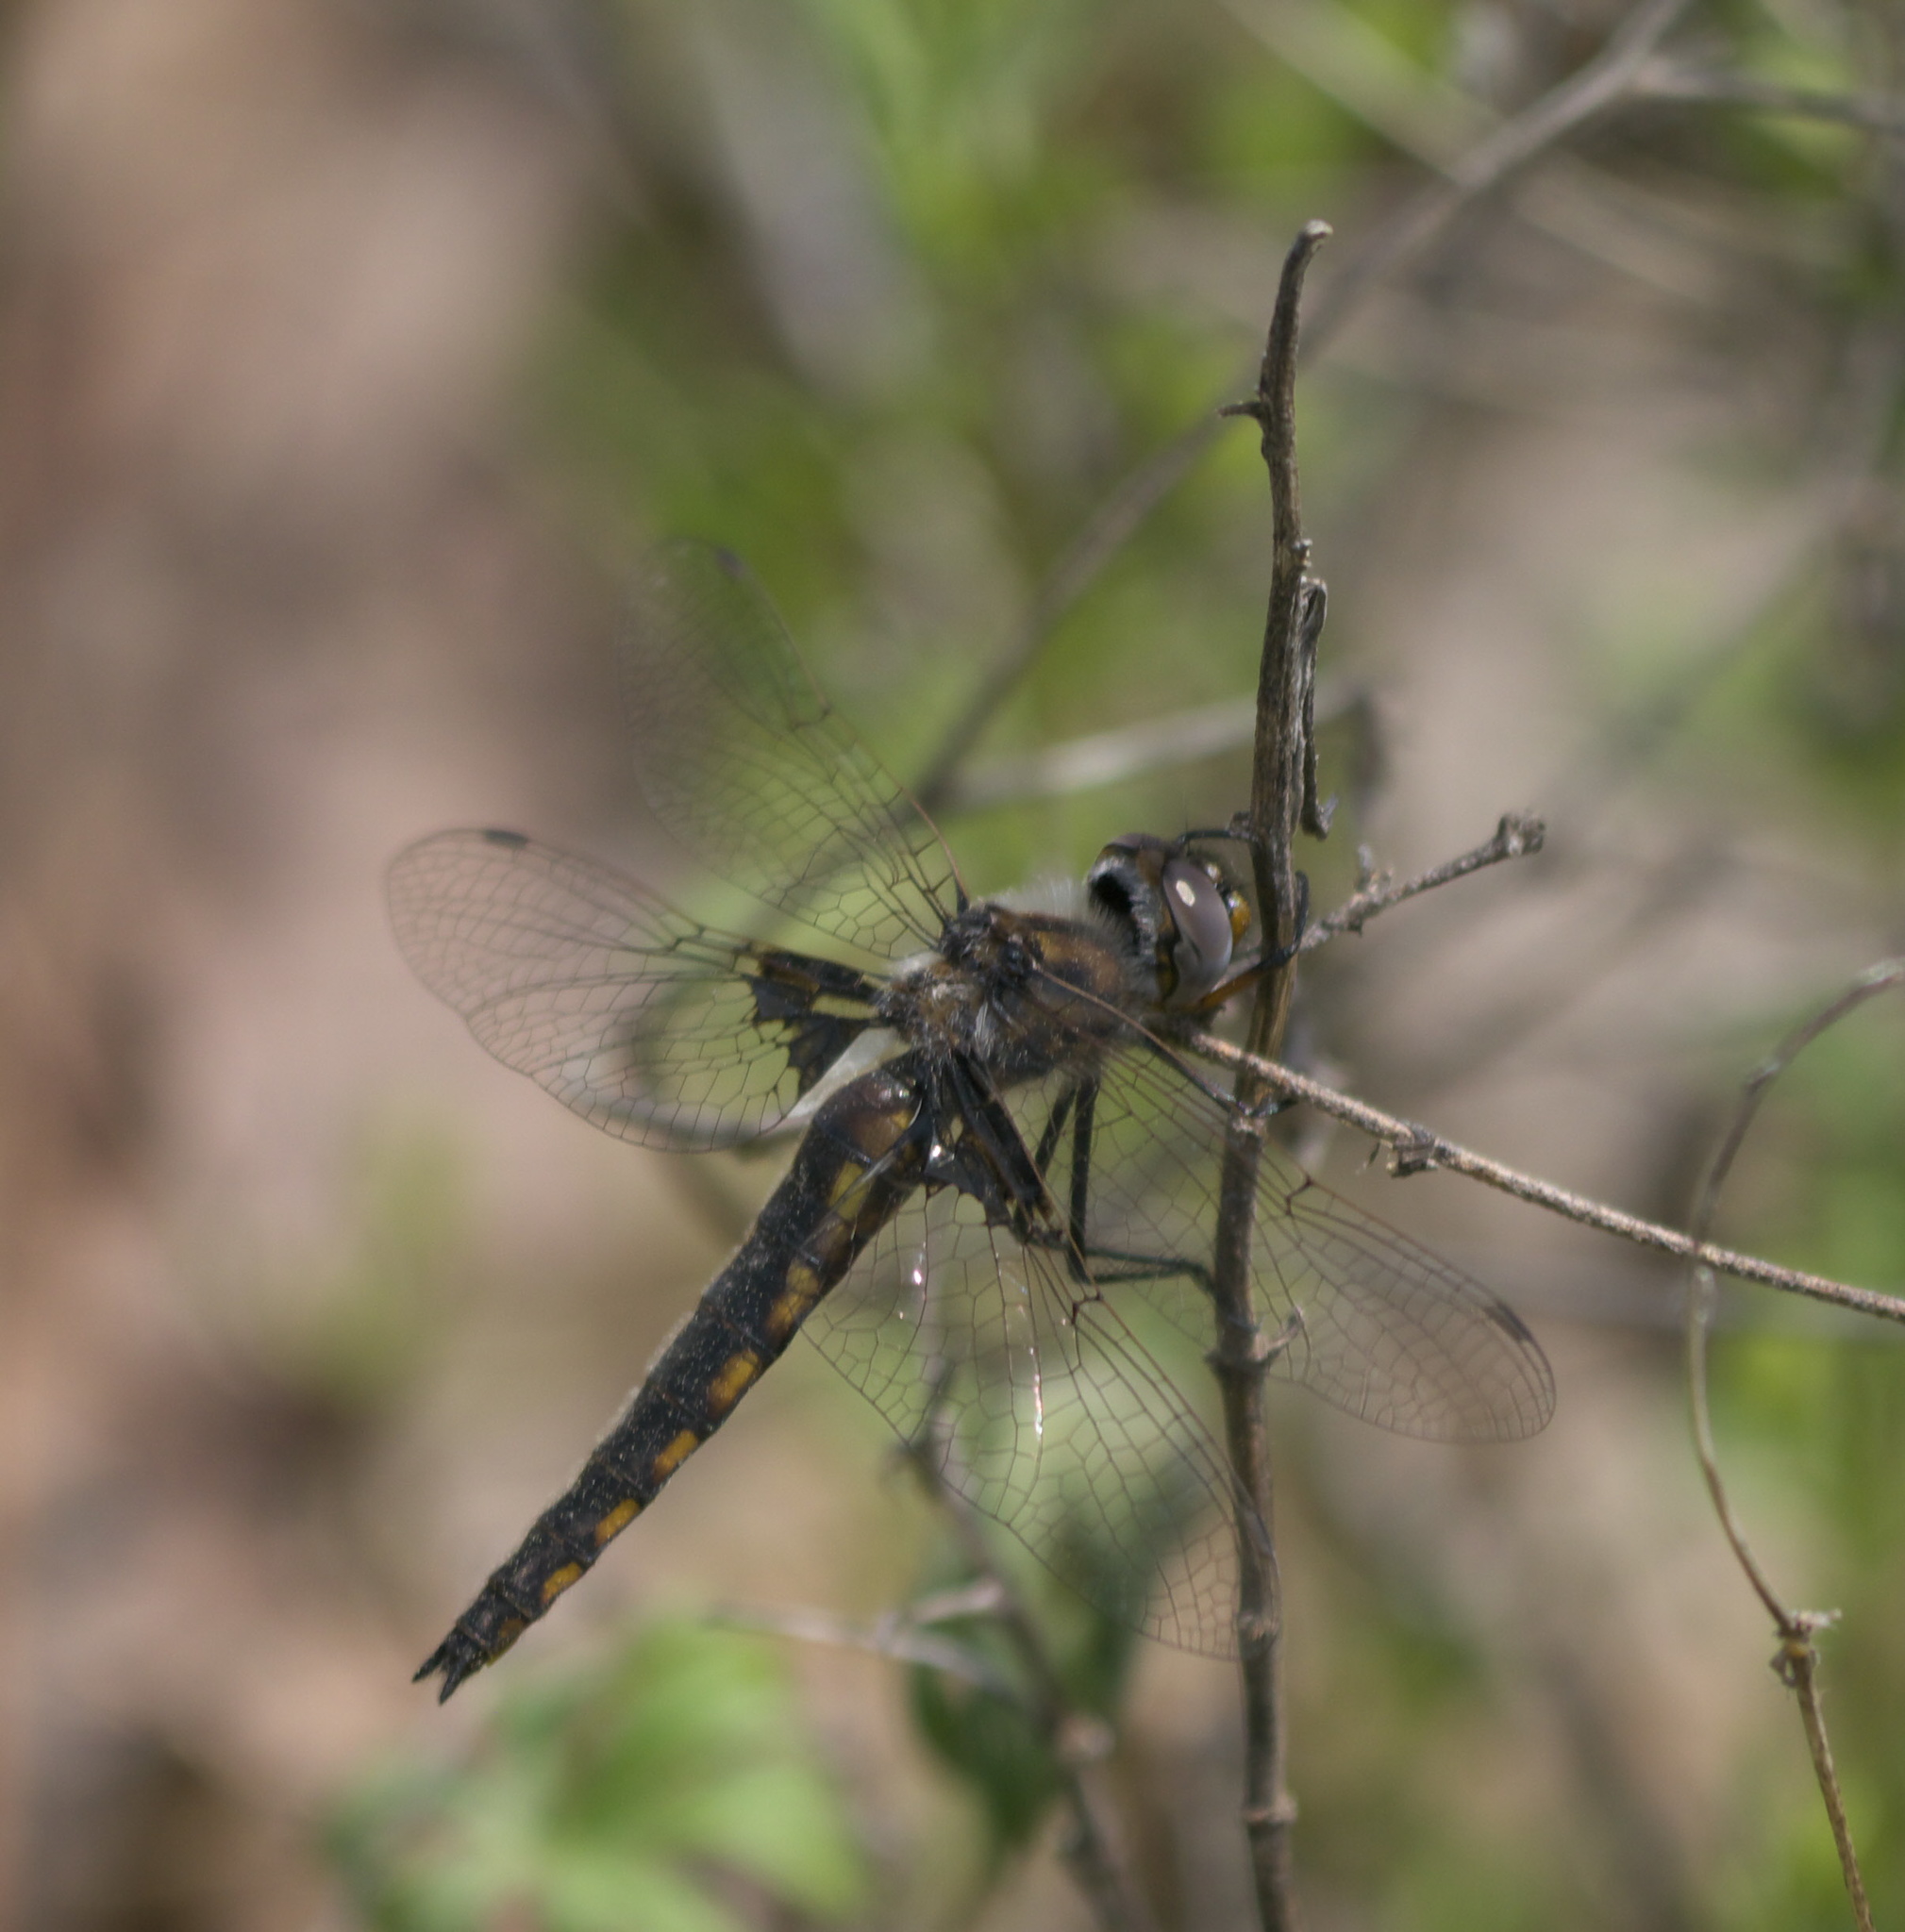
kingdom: Animalia
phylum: Arthropoda
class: Insecta
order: Odonata
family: Corduliidae
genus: Epitheca
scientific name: Epitheca semiaquea
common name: Mantled baskettail
